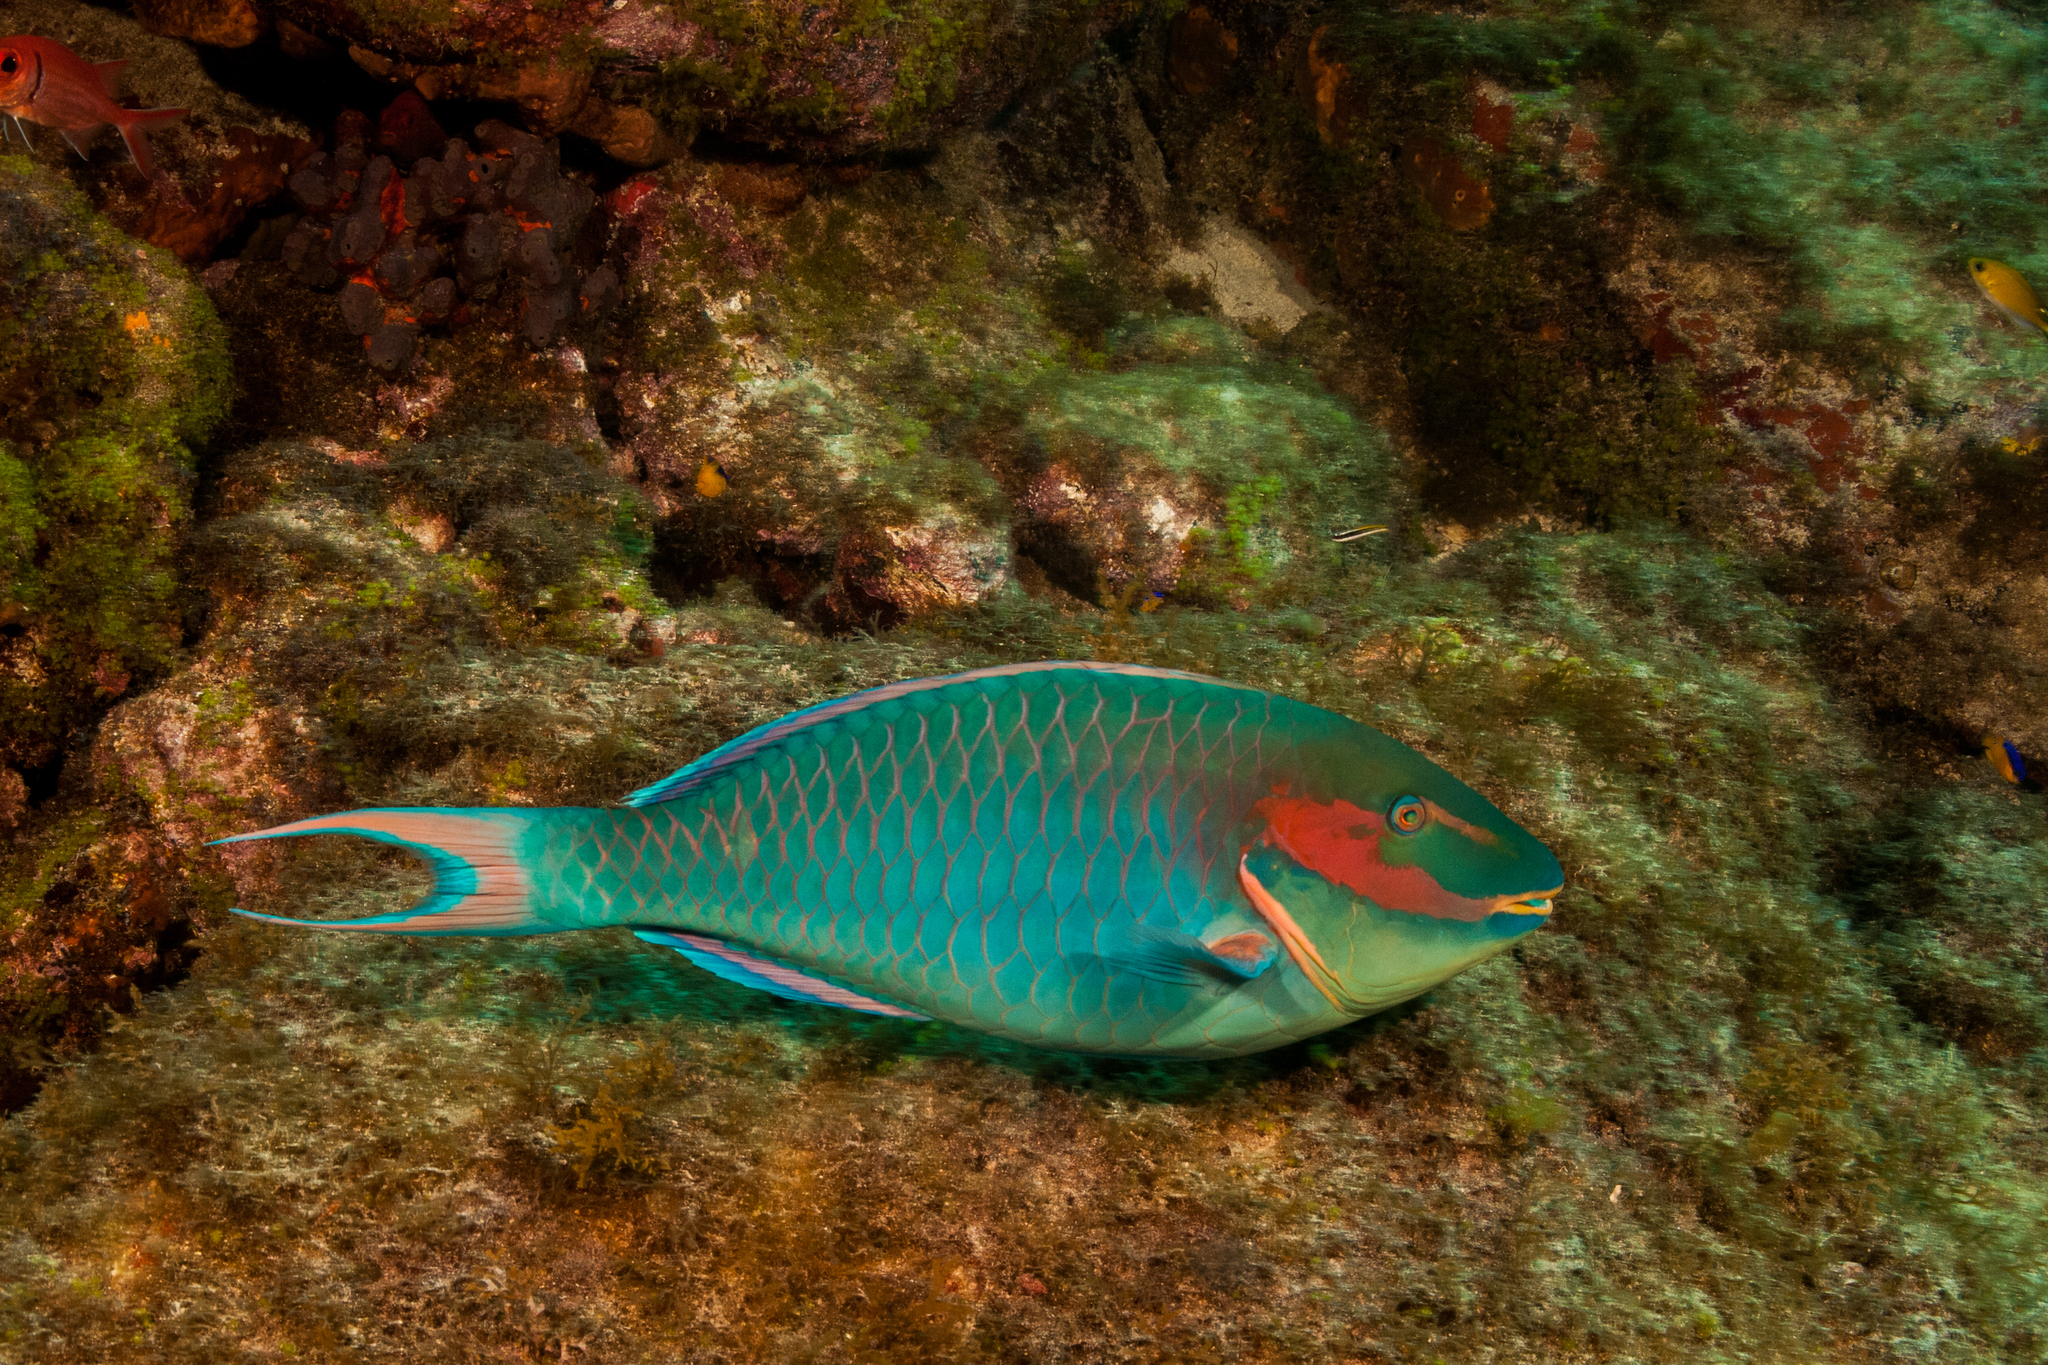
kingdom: Animalia
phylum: Chordata
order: Perciformes
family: Scaridae
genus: Sparisoma
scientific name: Sparisoma amplum
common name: Reef parrotfish
